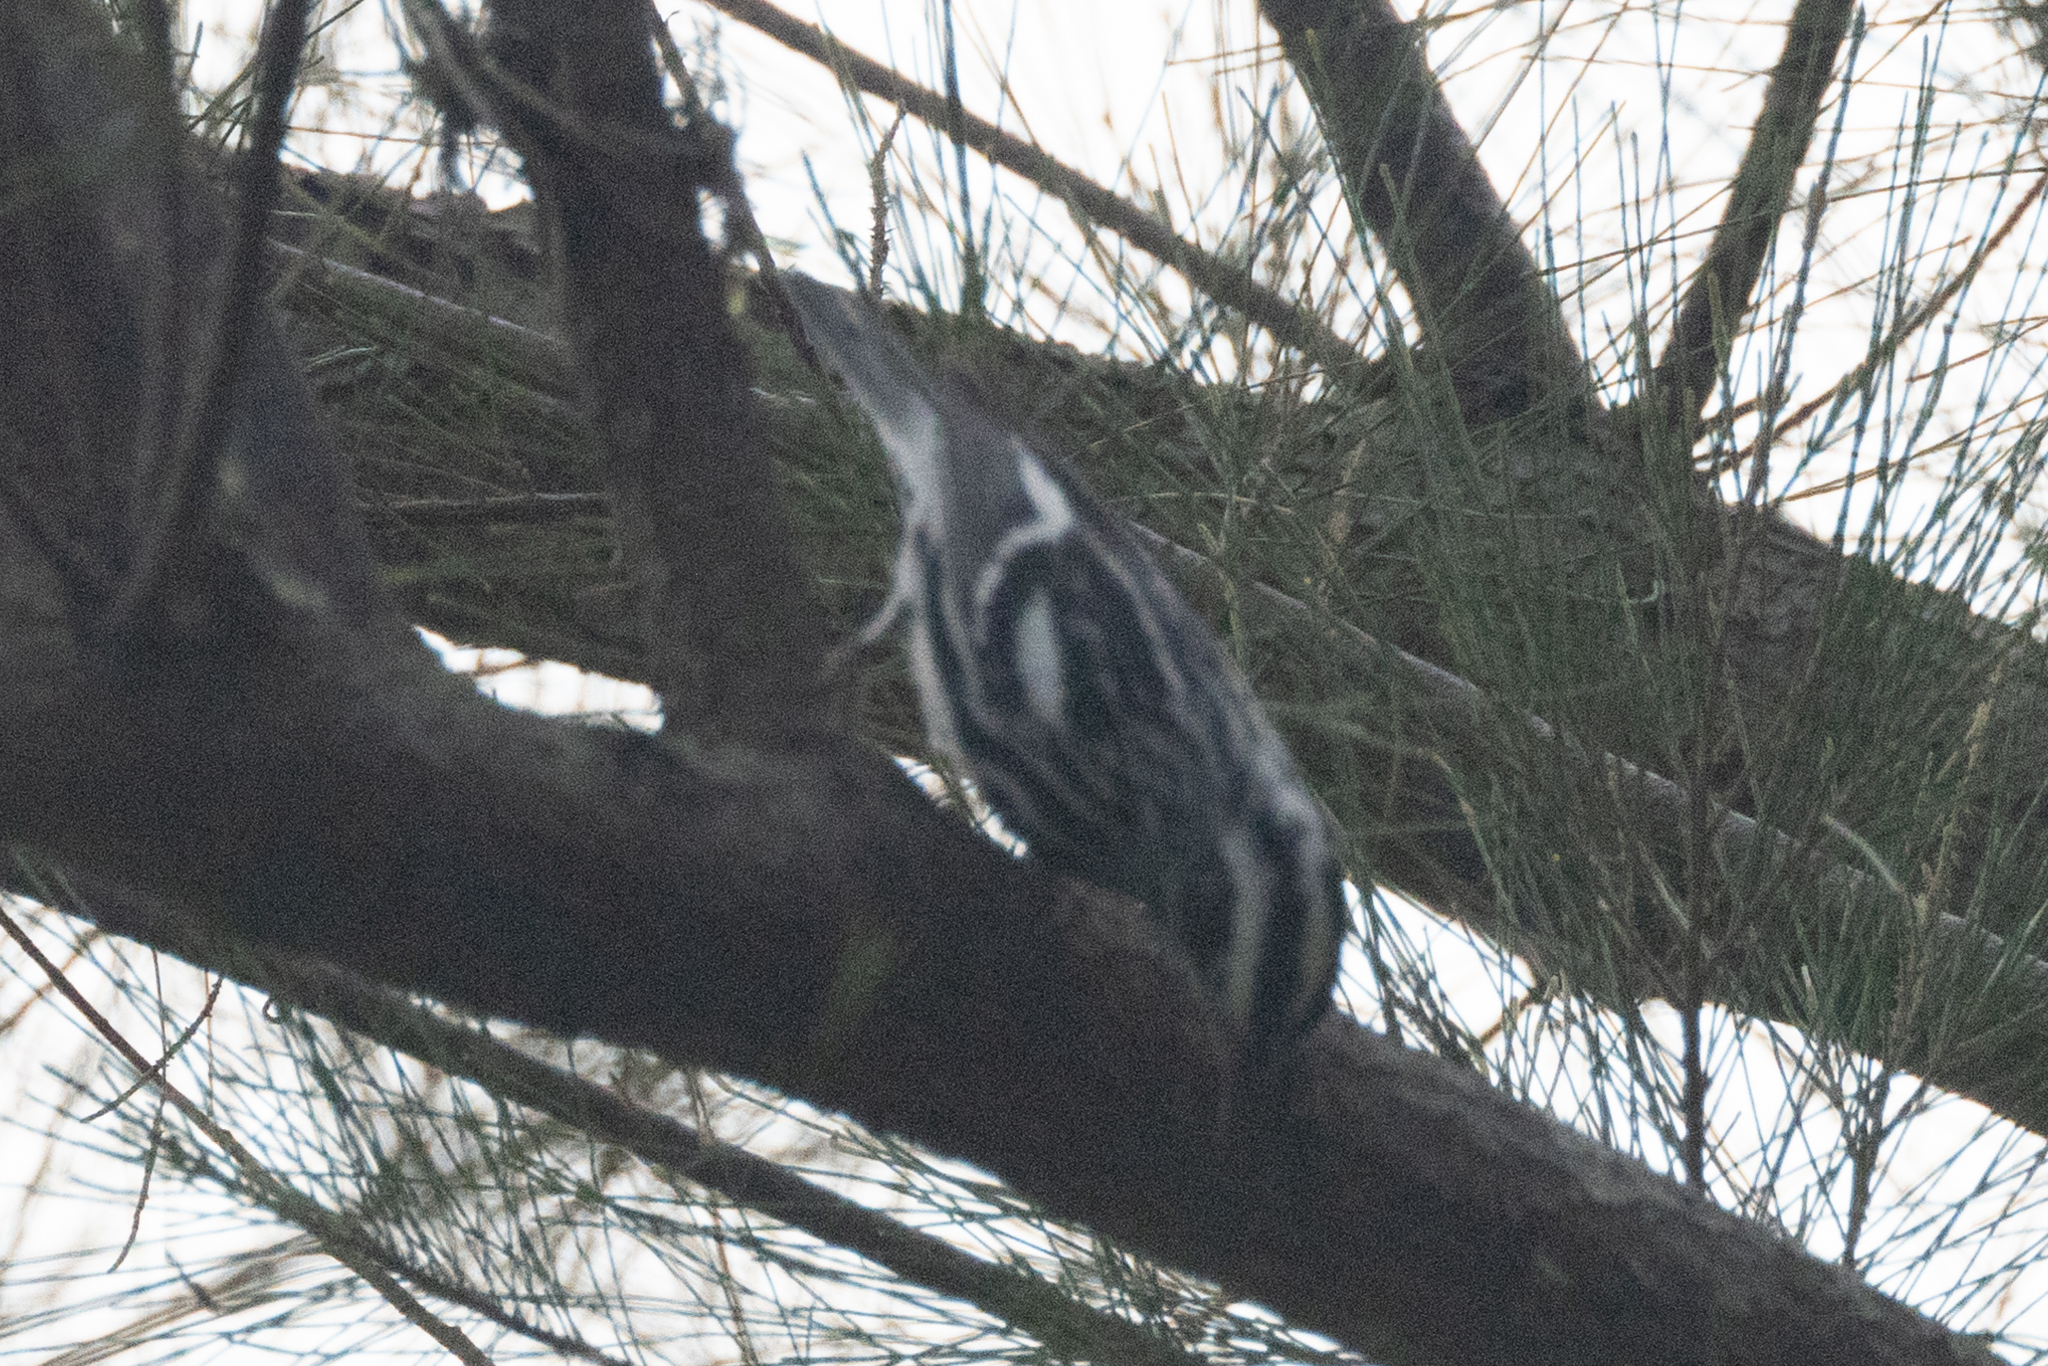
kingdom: Animalia
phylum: Chordata
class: Aves
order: Passeriformes
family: Parulidae
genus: Mniotilta
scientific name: Mniotilta varia
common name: Black-and-white warbler
